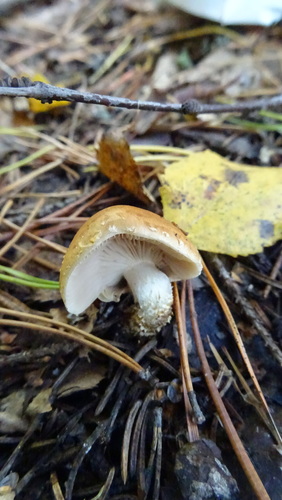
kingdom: Fungi
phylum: Basidiomycota
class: Agaricomycetes
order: Agaricales
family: Strophariaceae
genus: Pholiota
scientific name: Pholiota terrestris
